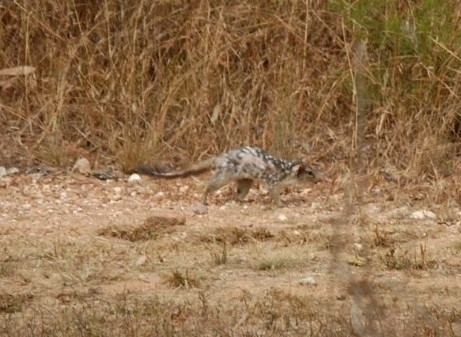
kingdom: Animalia
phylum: Chordata
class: Mammalia
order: Dasyuromorphia
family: Dasyuridae
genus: Dasyurus
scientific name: Dasyurus hallucatus
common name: Northern quoll
